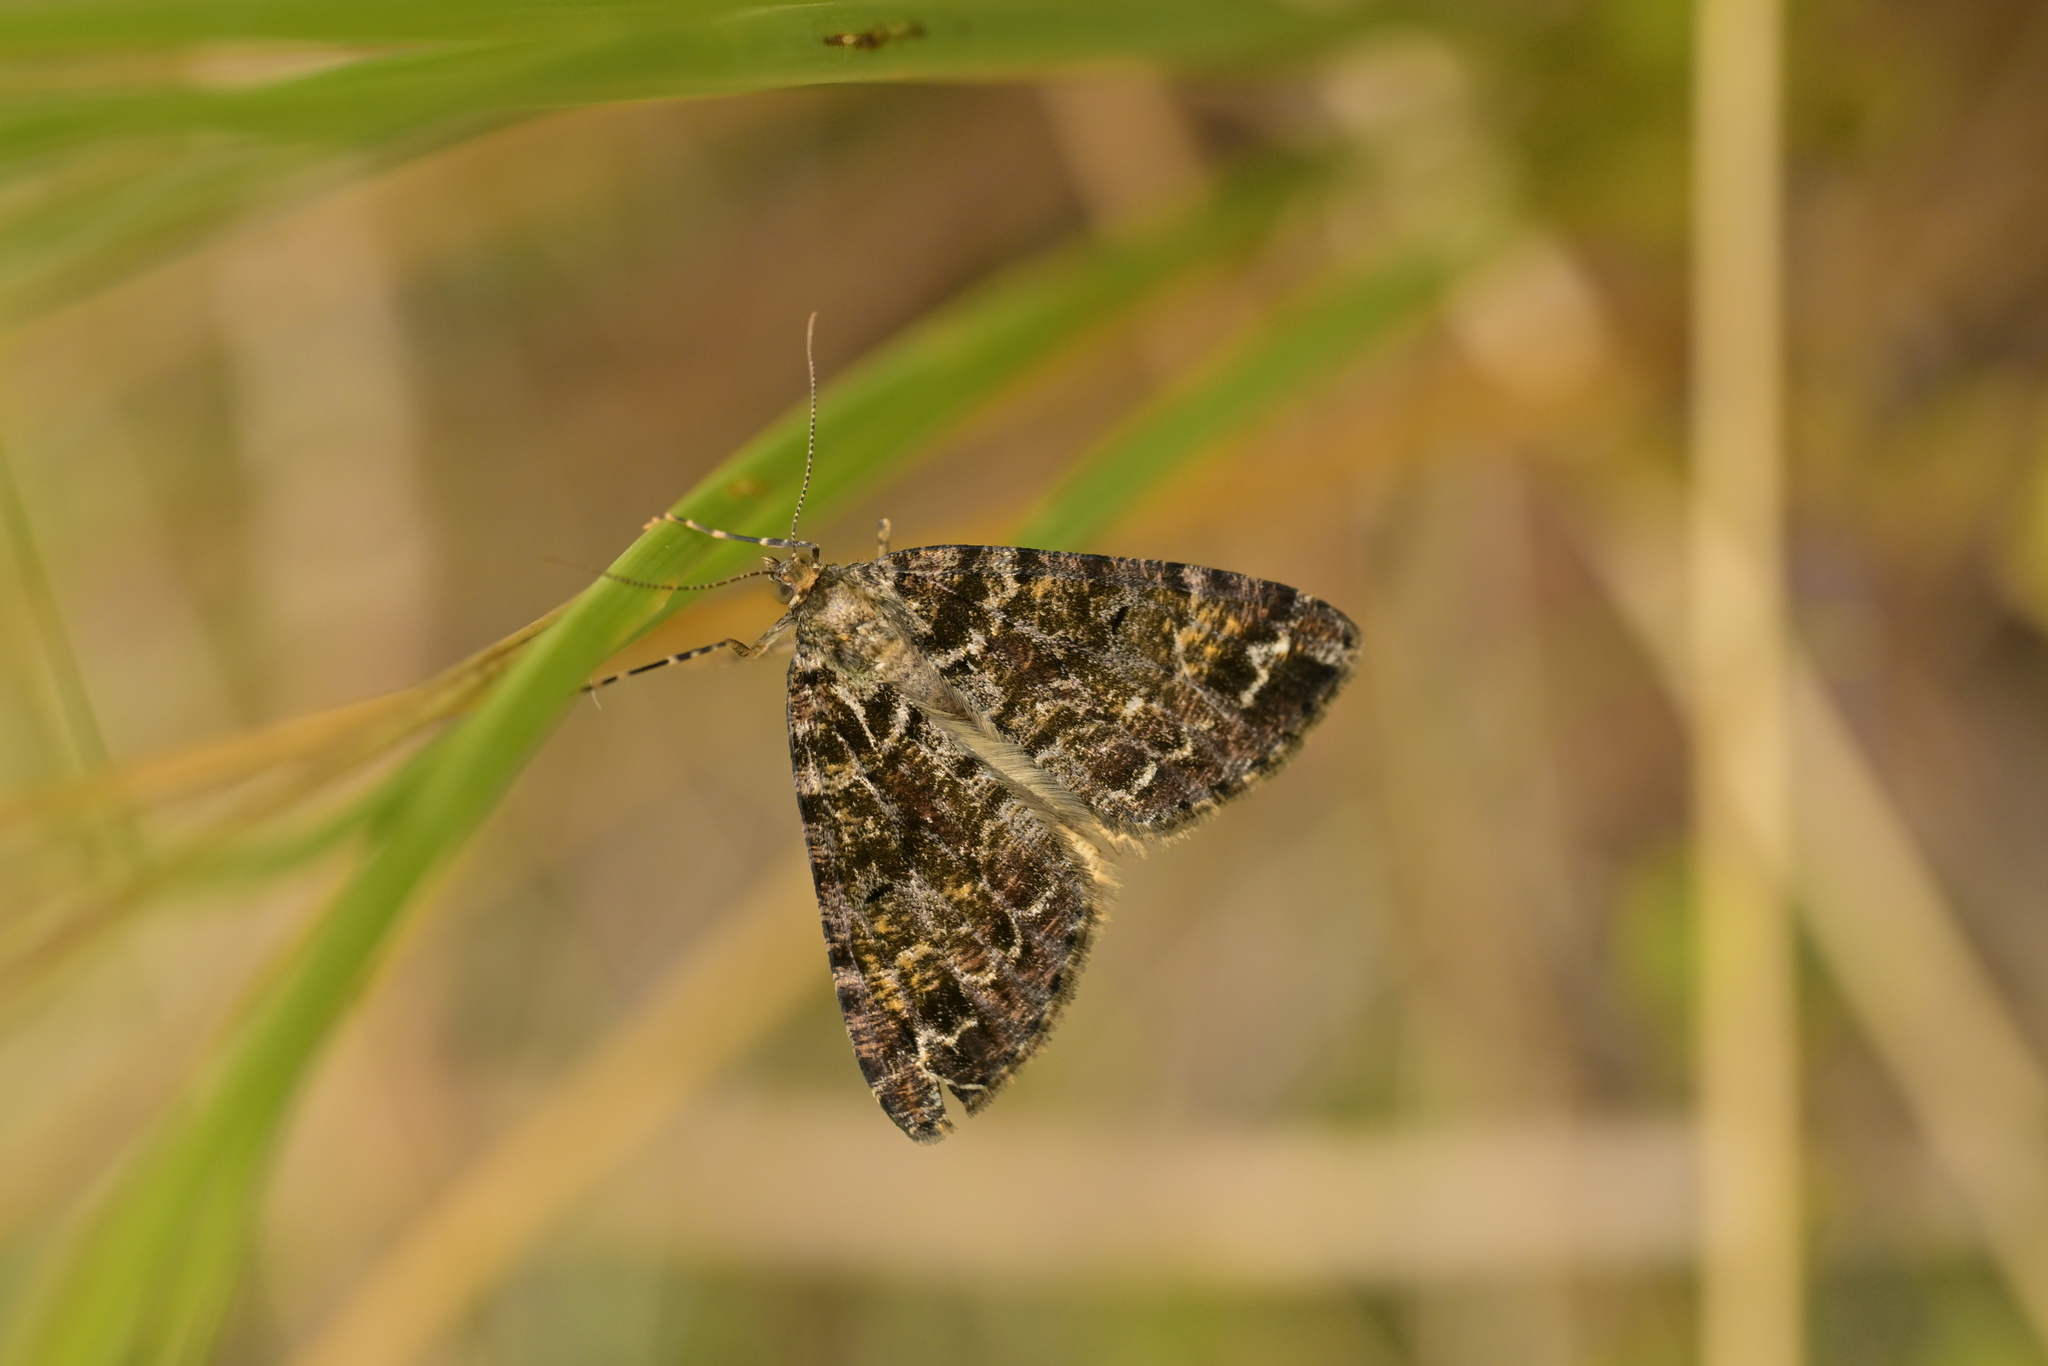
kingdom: Animalia
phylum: Arthropoda
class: Insecta
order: Lepidoptera
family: Geometridae
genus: Pseudocoremia
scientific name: Pseudocoremia productata
